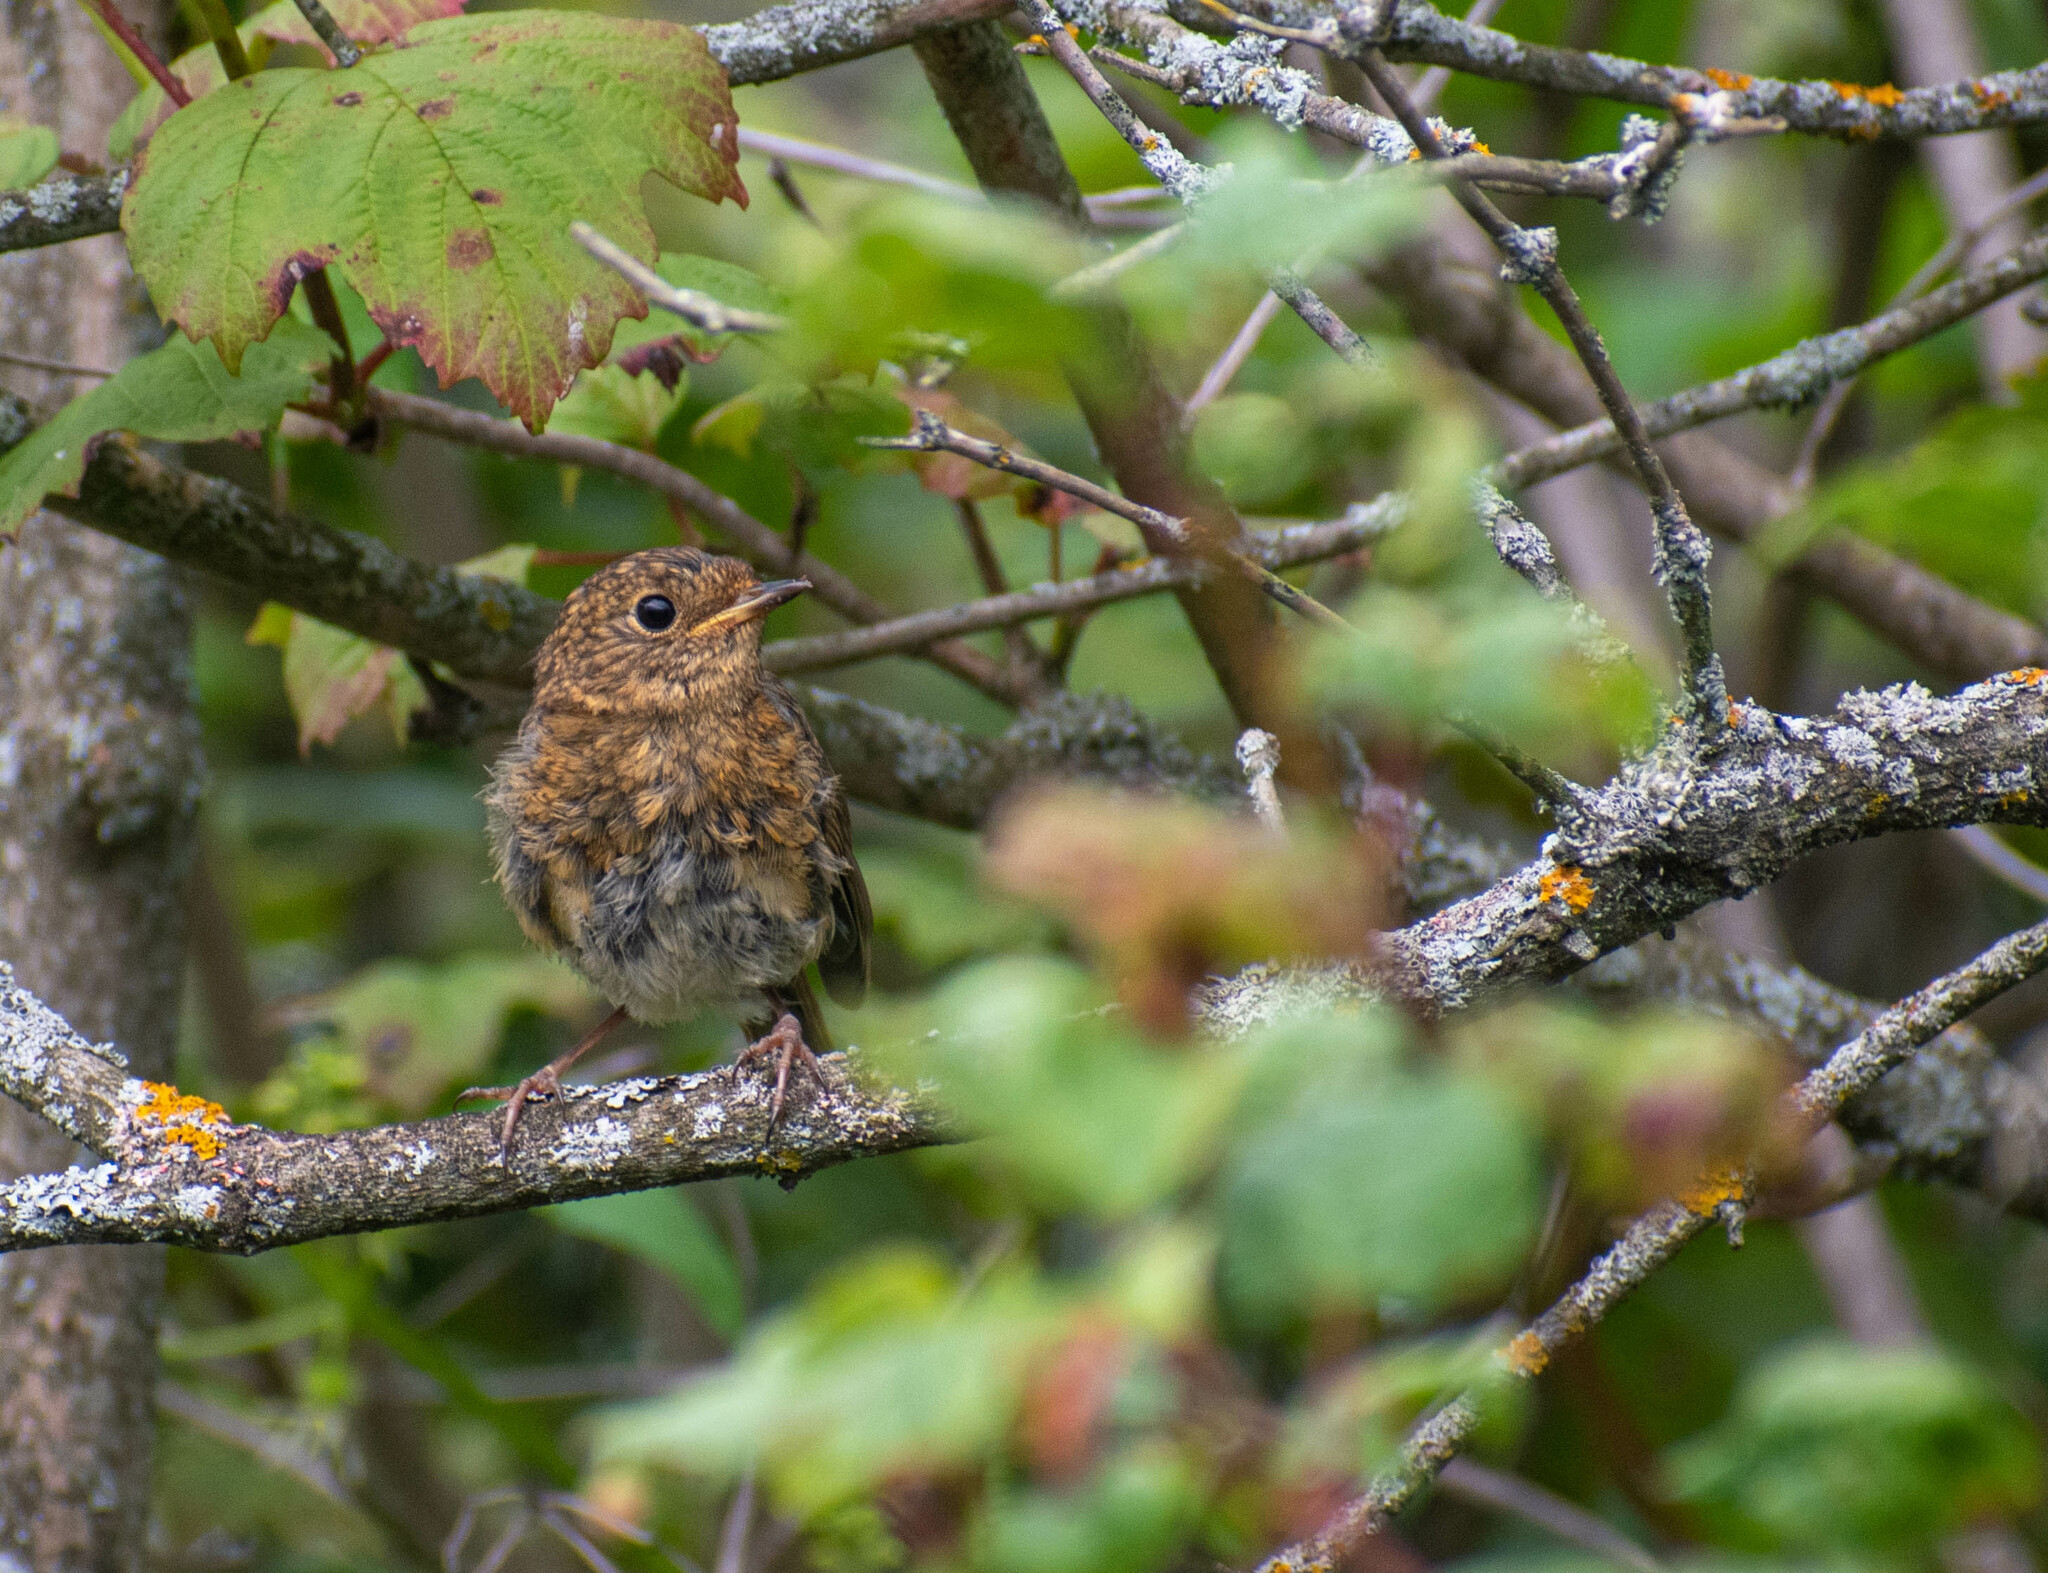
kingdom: Animalia
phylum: Chordata
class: Aves
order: Passeriformes
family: Muscicapidae
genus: Erithacus
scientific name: Erithacus rubecula
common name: European robin
